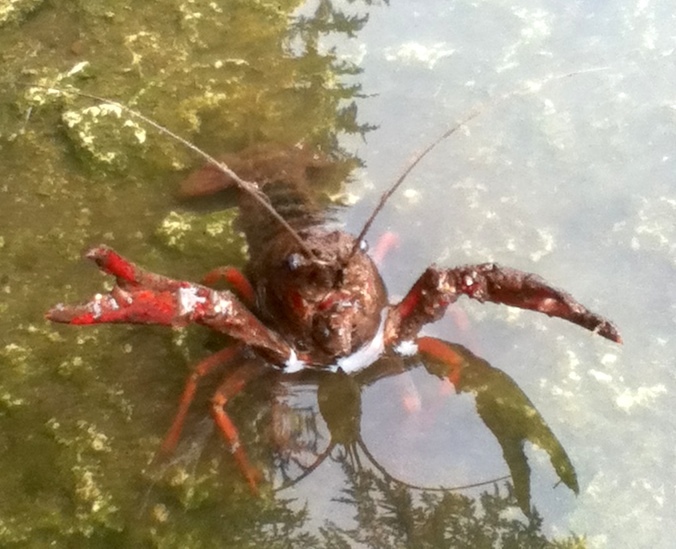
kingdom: Animalia
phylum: Arthropoda
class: Malacostraca
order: Decapoda
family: Cambaridae
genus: Procambarus
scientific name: Procambarus clarkii
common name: Red swamp crayfish
